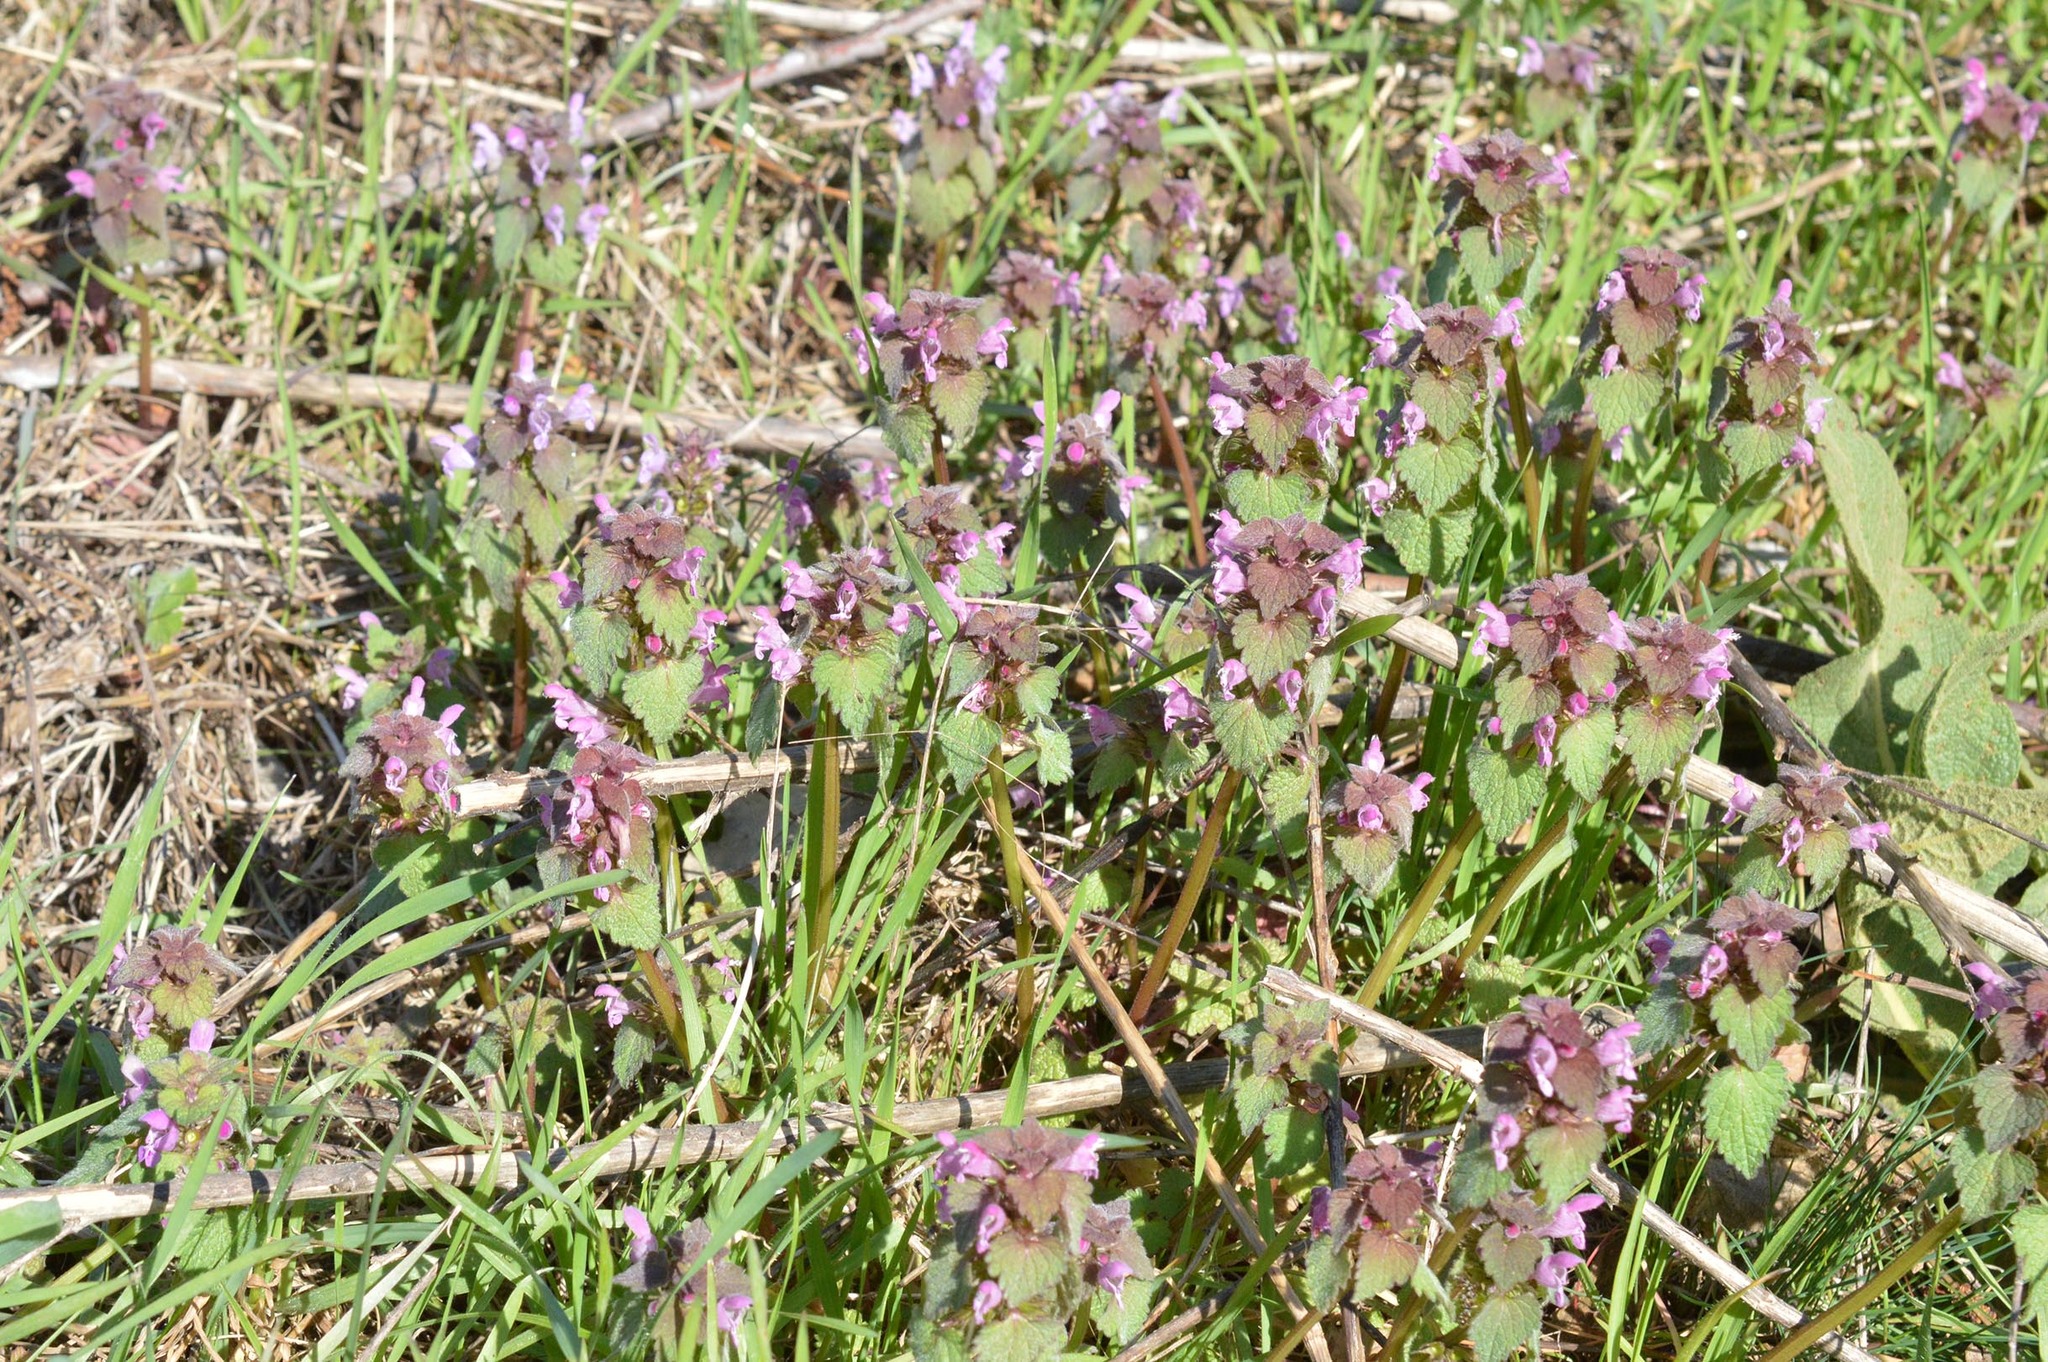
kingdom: Plantae
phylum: Tracheophyta
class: Magnoliopsida
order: Lamiales
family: Lamiaceae
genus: Lamium
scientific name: Lamium purpureum
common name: Red dead-nettle
